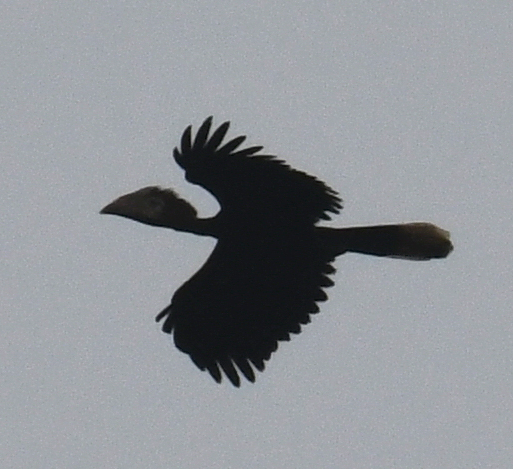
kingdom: Animalia
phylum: Chordata
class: Aves
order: Bucerotiformes
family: Bucerotidae
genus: Ceratogymna
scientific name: Ceratogymna atrata
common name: Black-casqued hornbill
